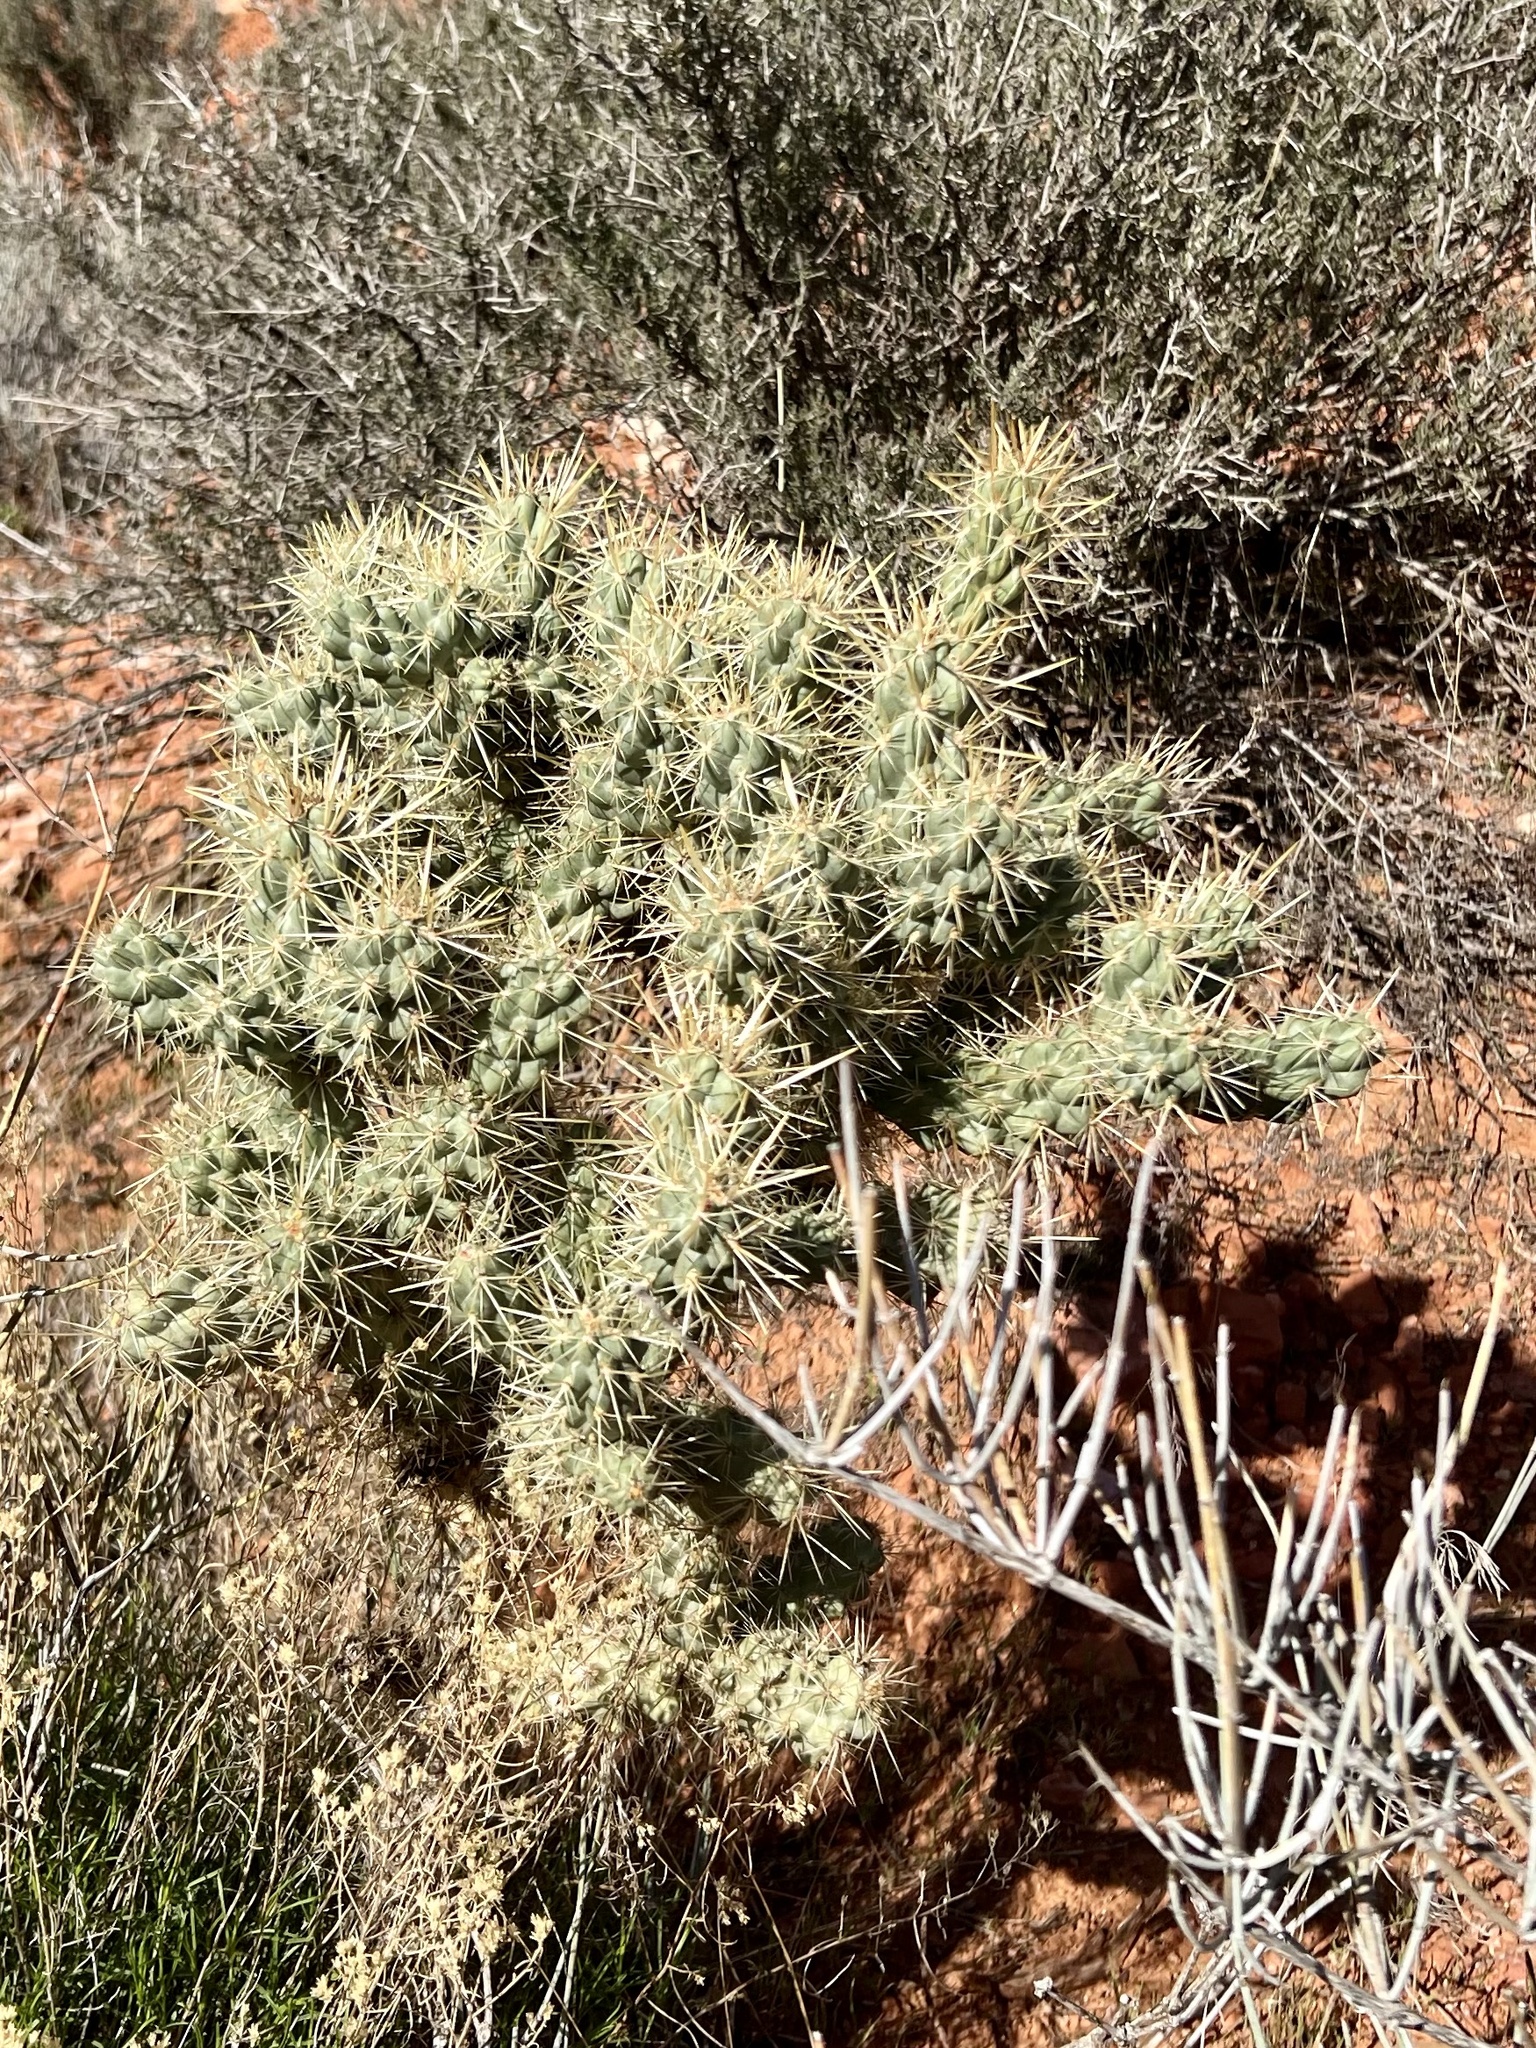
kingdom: Plantae
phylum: Tracheophyta
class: Magnoliopsida
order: Caryophyllales
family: Cactaceae
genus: Cylindropuntia
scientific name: Cylindropuntia echinocarpa
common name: Ground cholla
